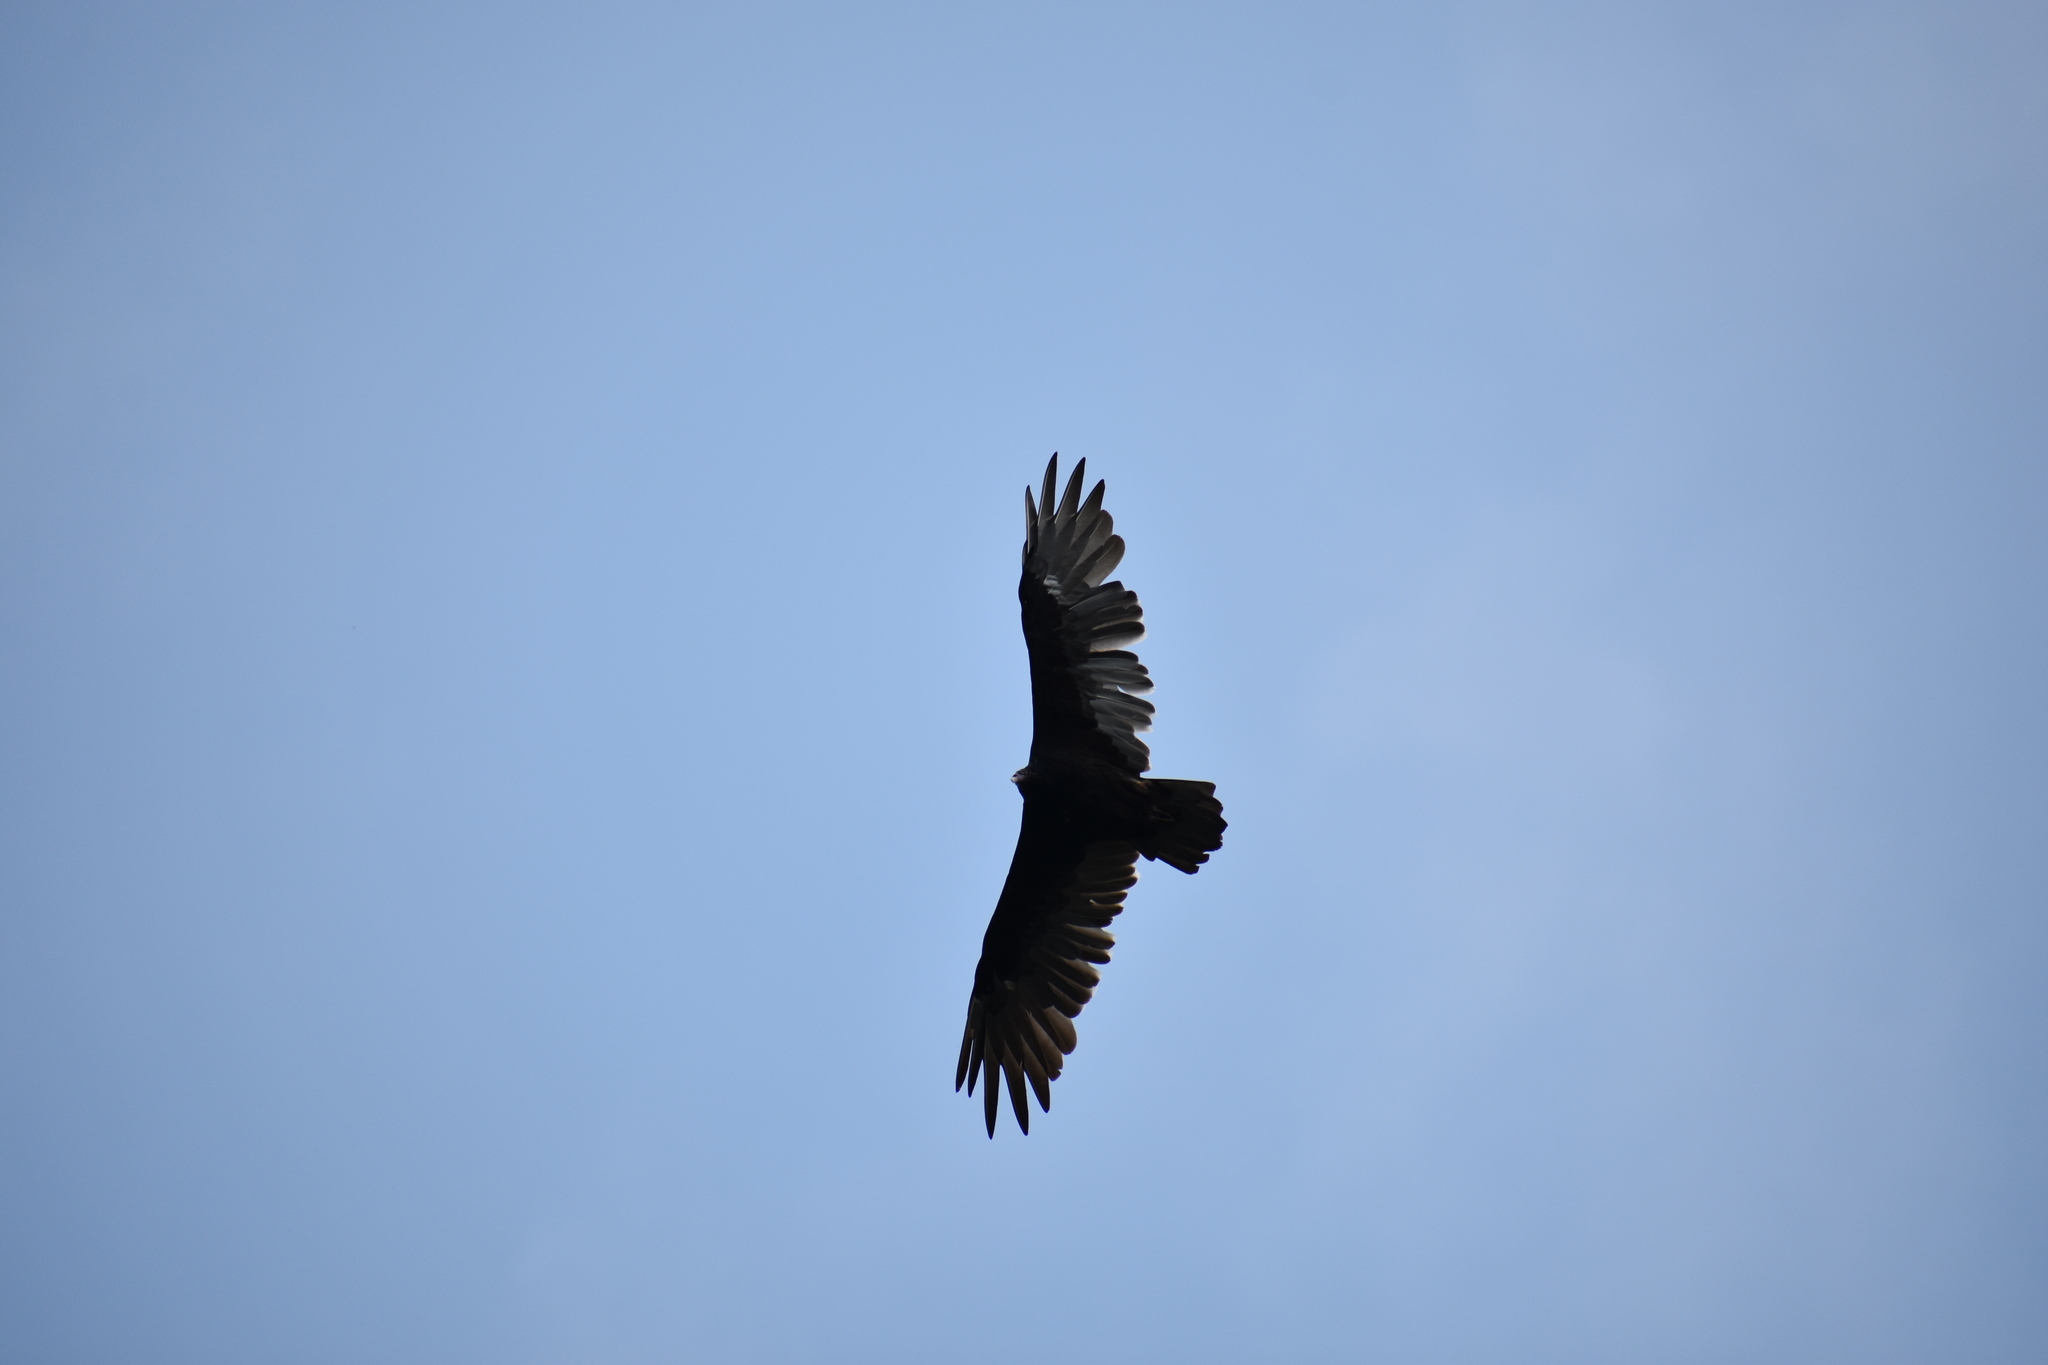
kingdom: Animalia
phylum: Chordata
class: Aves
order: Accipitriformes
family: Cathartidae
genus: Cathartes
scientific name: Cathartes aura
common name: Turkey vulture
